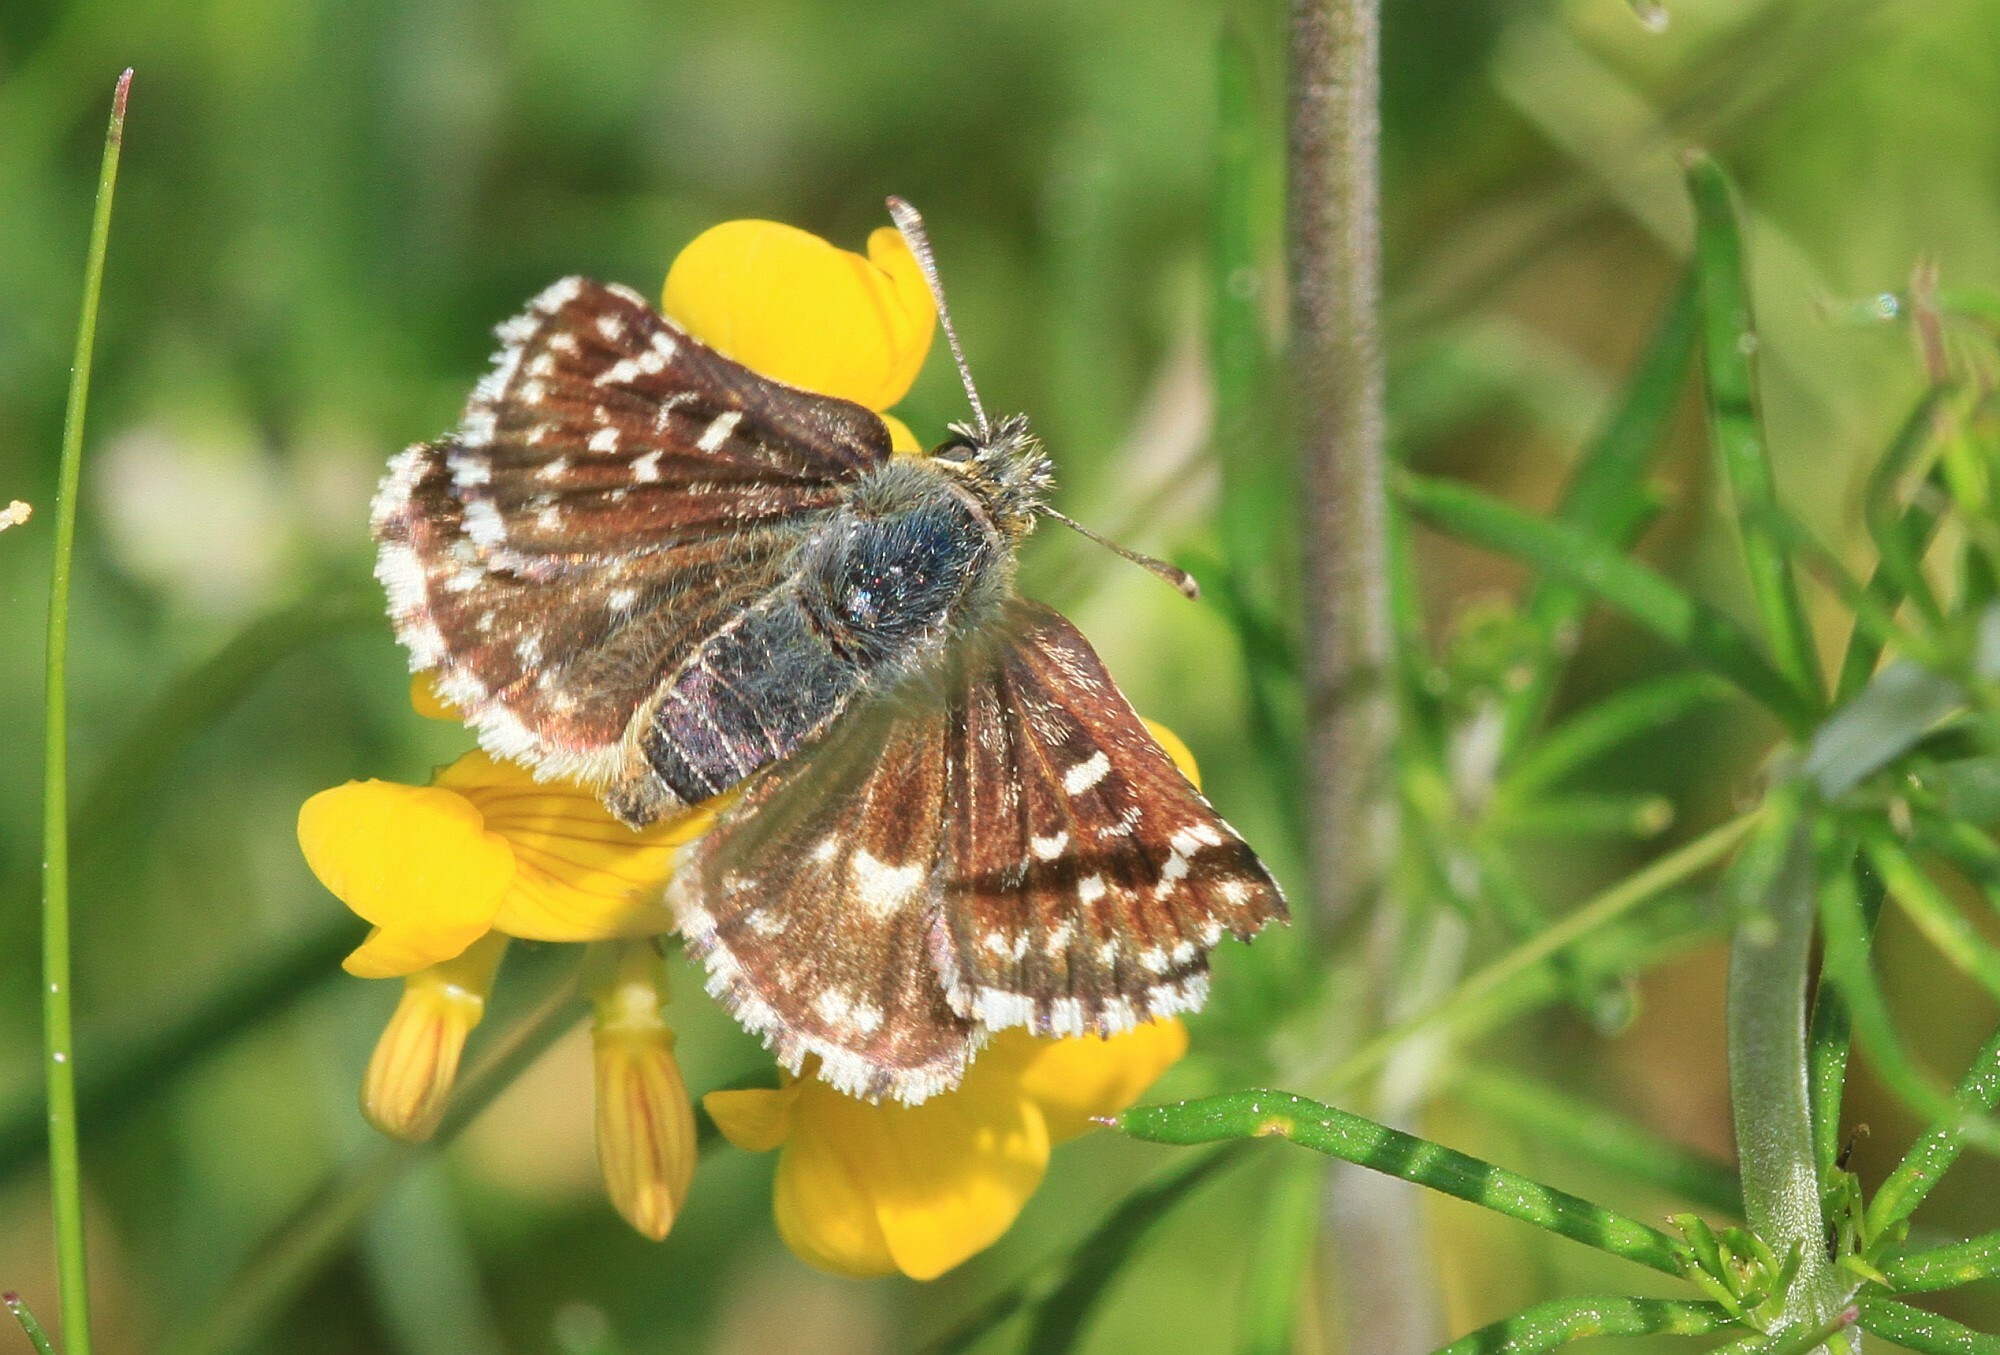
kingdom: Animalia
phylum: Arthropoda
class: Insecta
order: Lepidoptera
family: Hesperiidae
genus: Spialia
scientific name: Spialia sertorius
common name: Red underwing skipper
